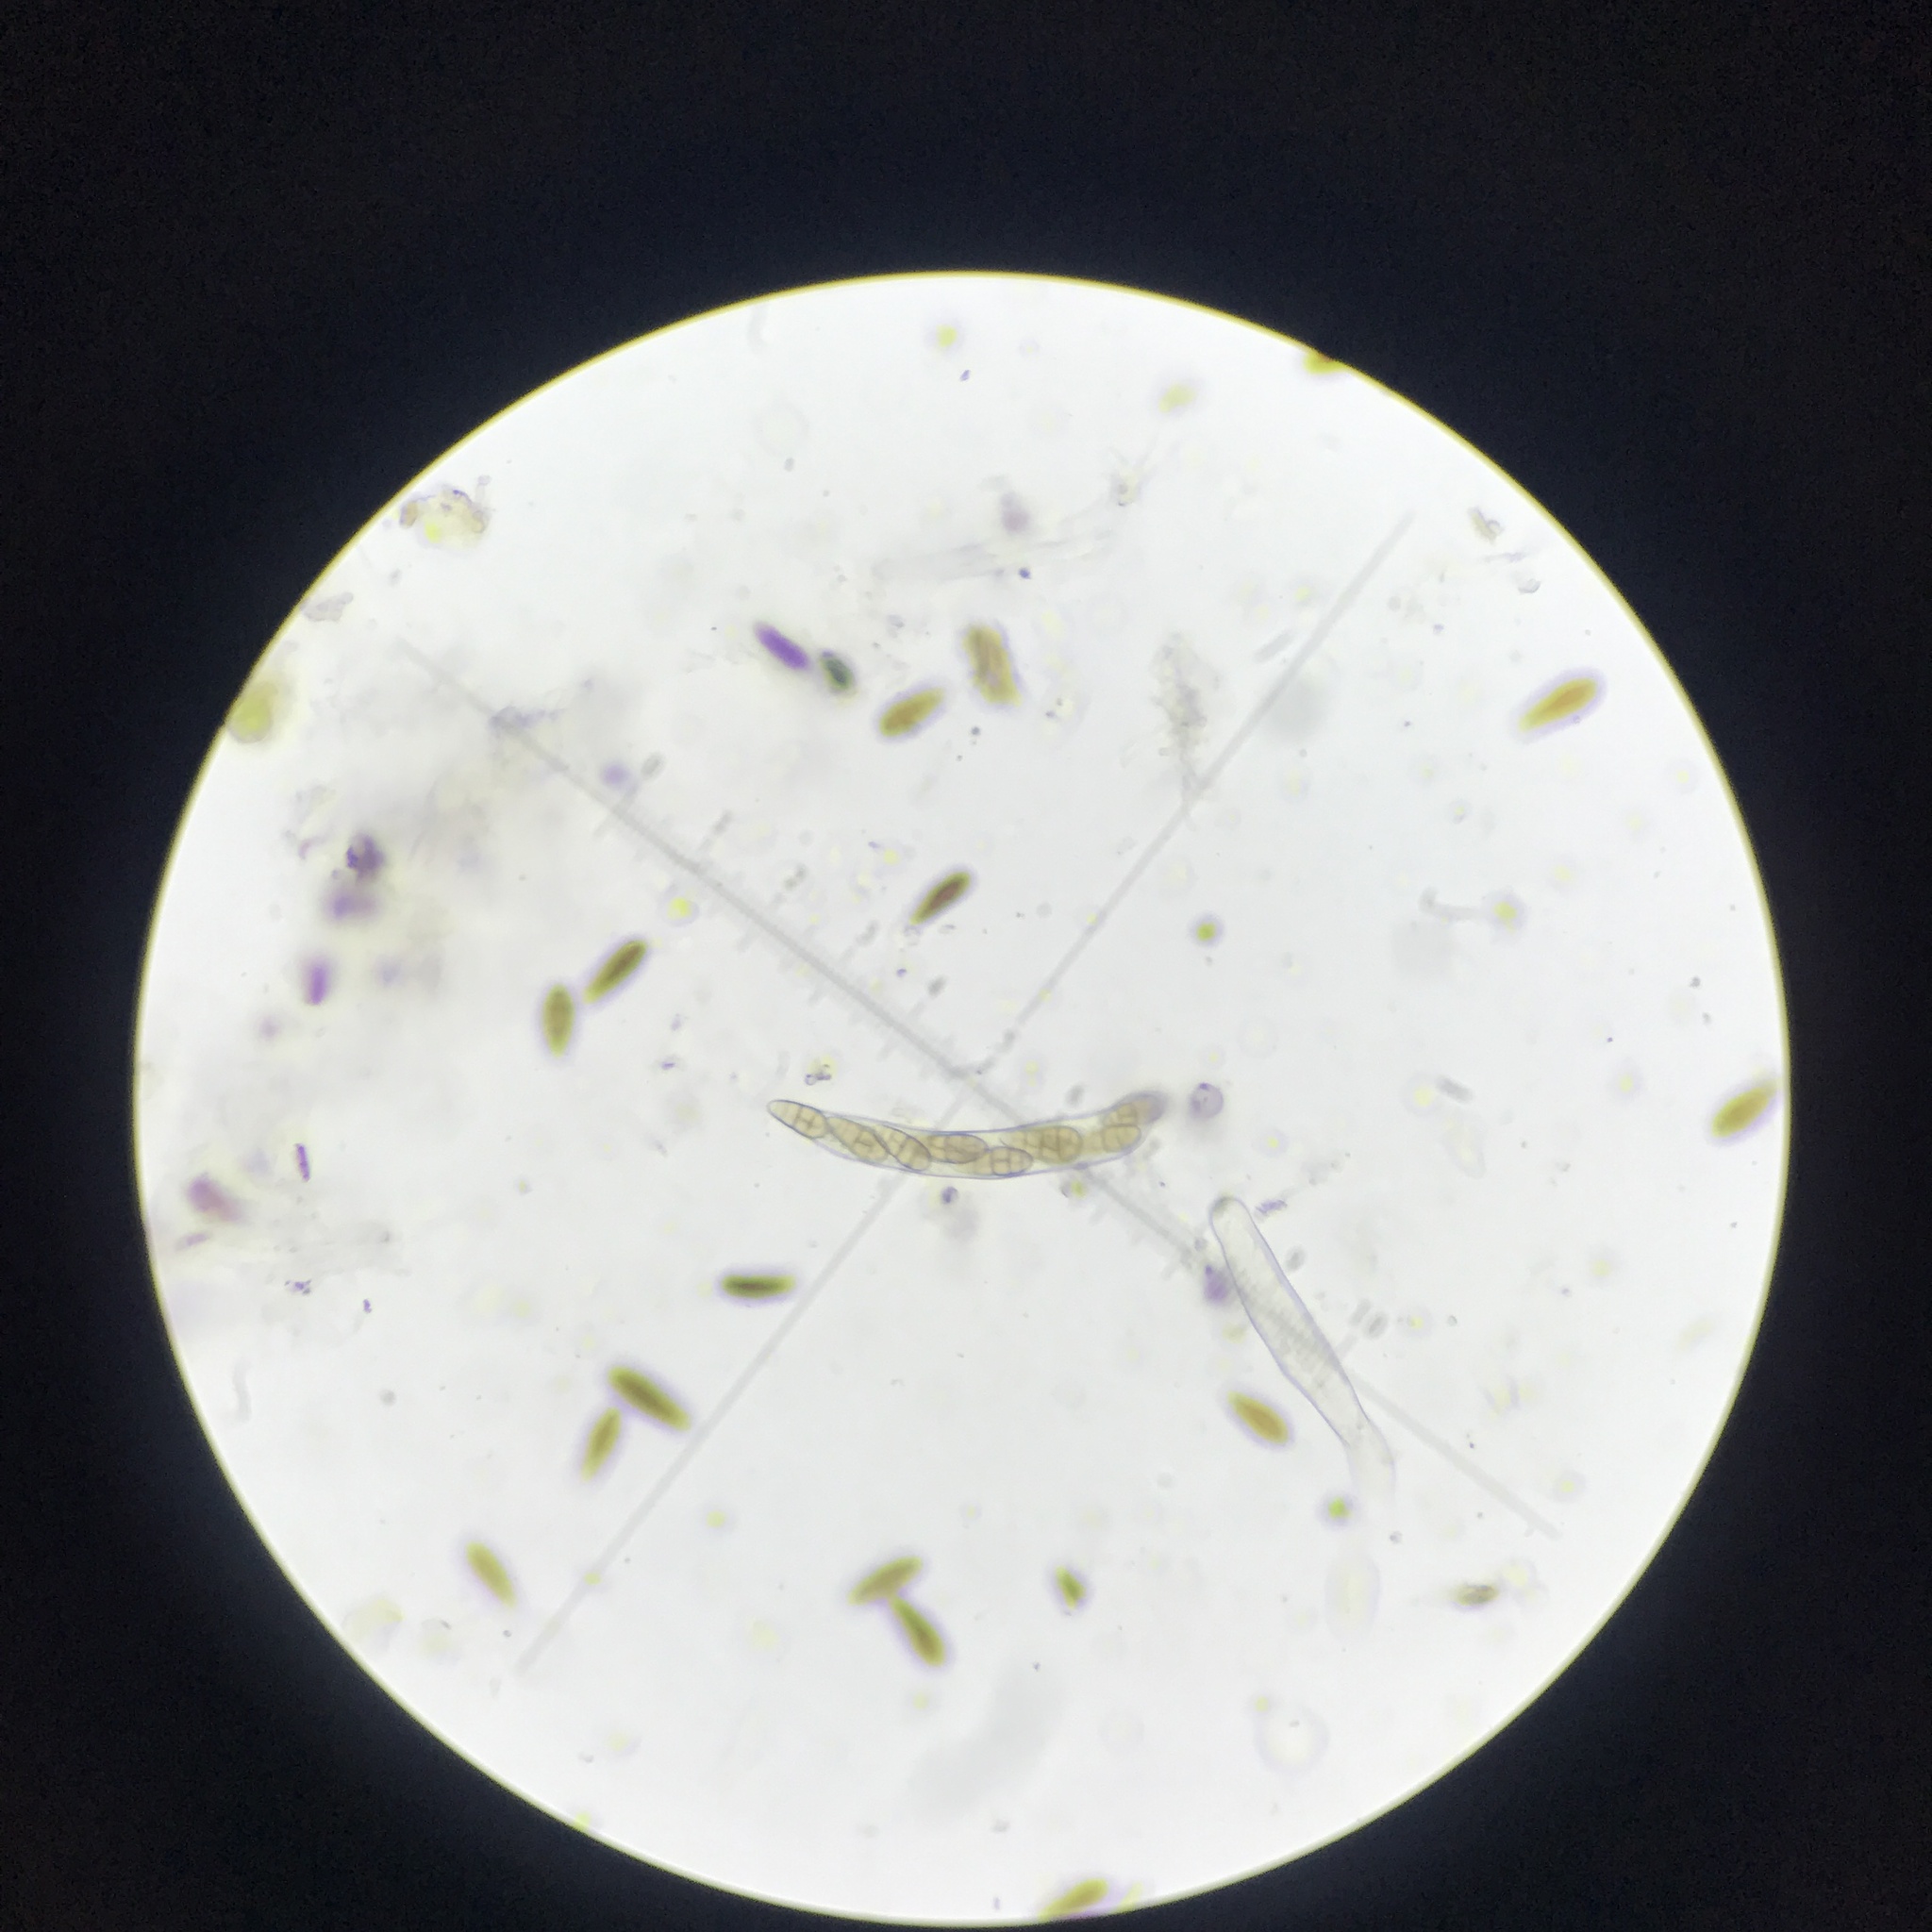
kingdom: Fungi
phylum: Ascomycota
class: Dothideomycetes
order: Hysteriales
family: Hysteriaceae
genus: Hysterobrevium
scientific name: Hysterobrevium mori
